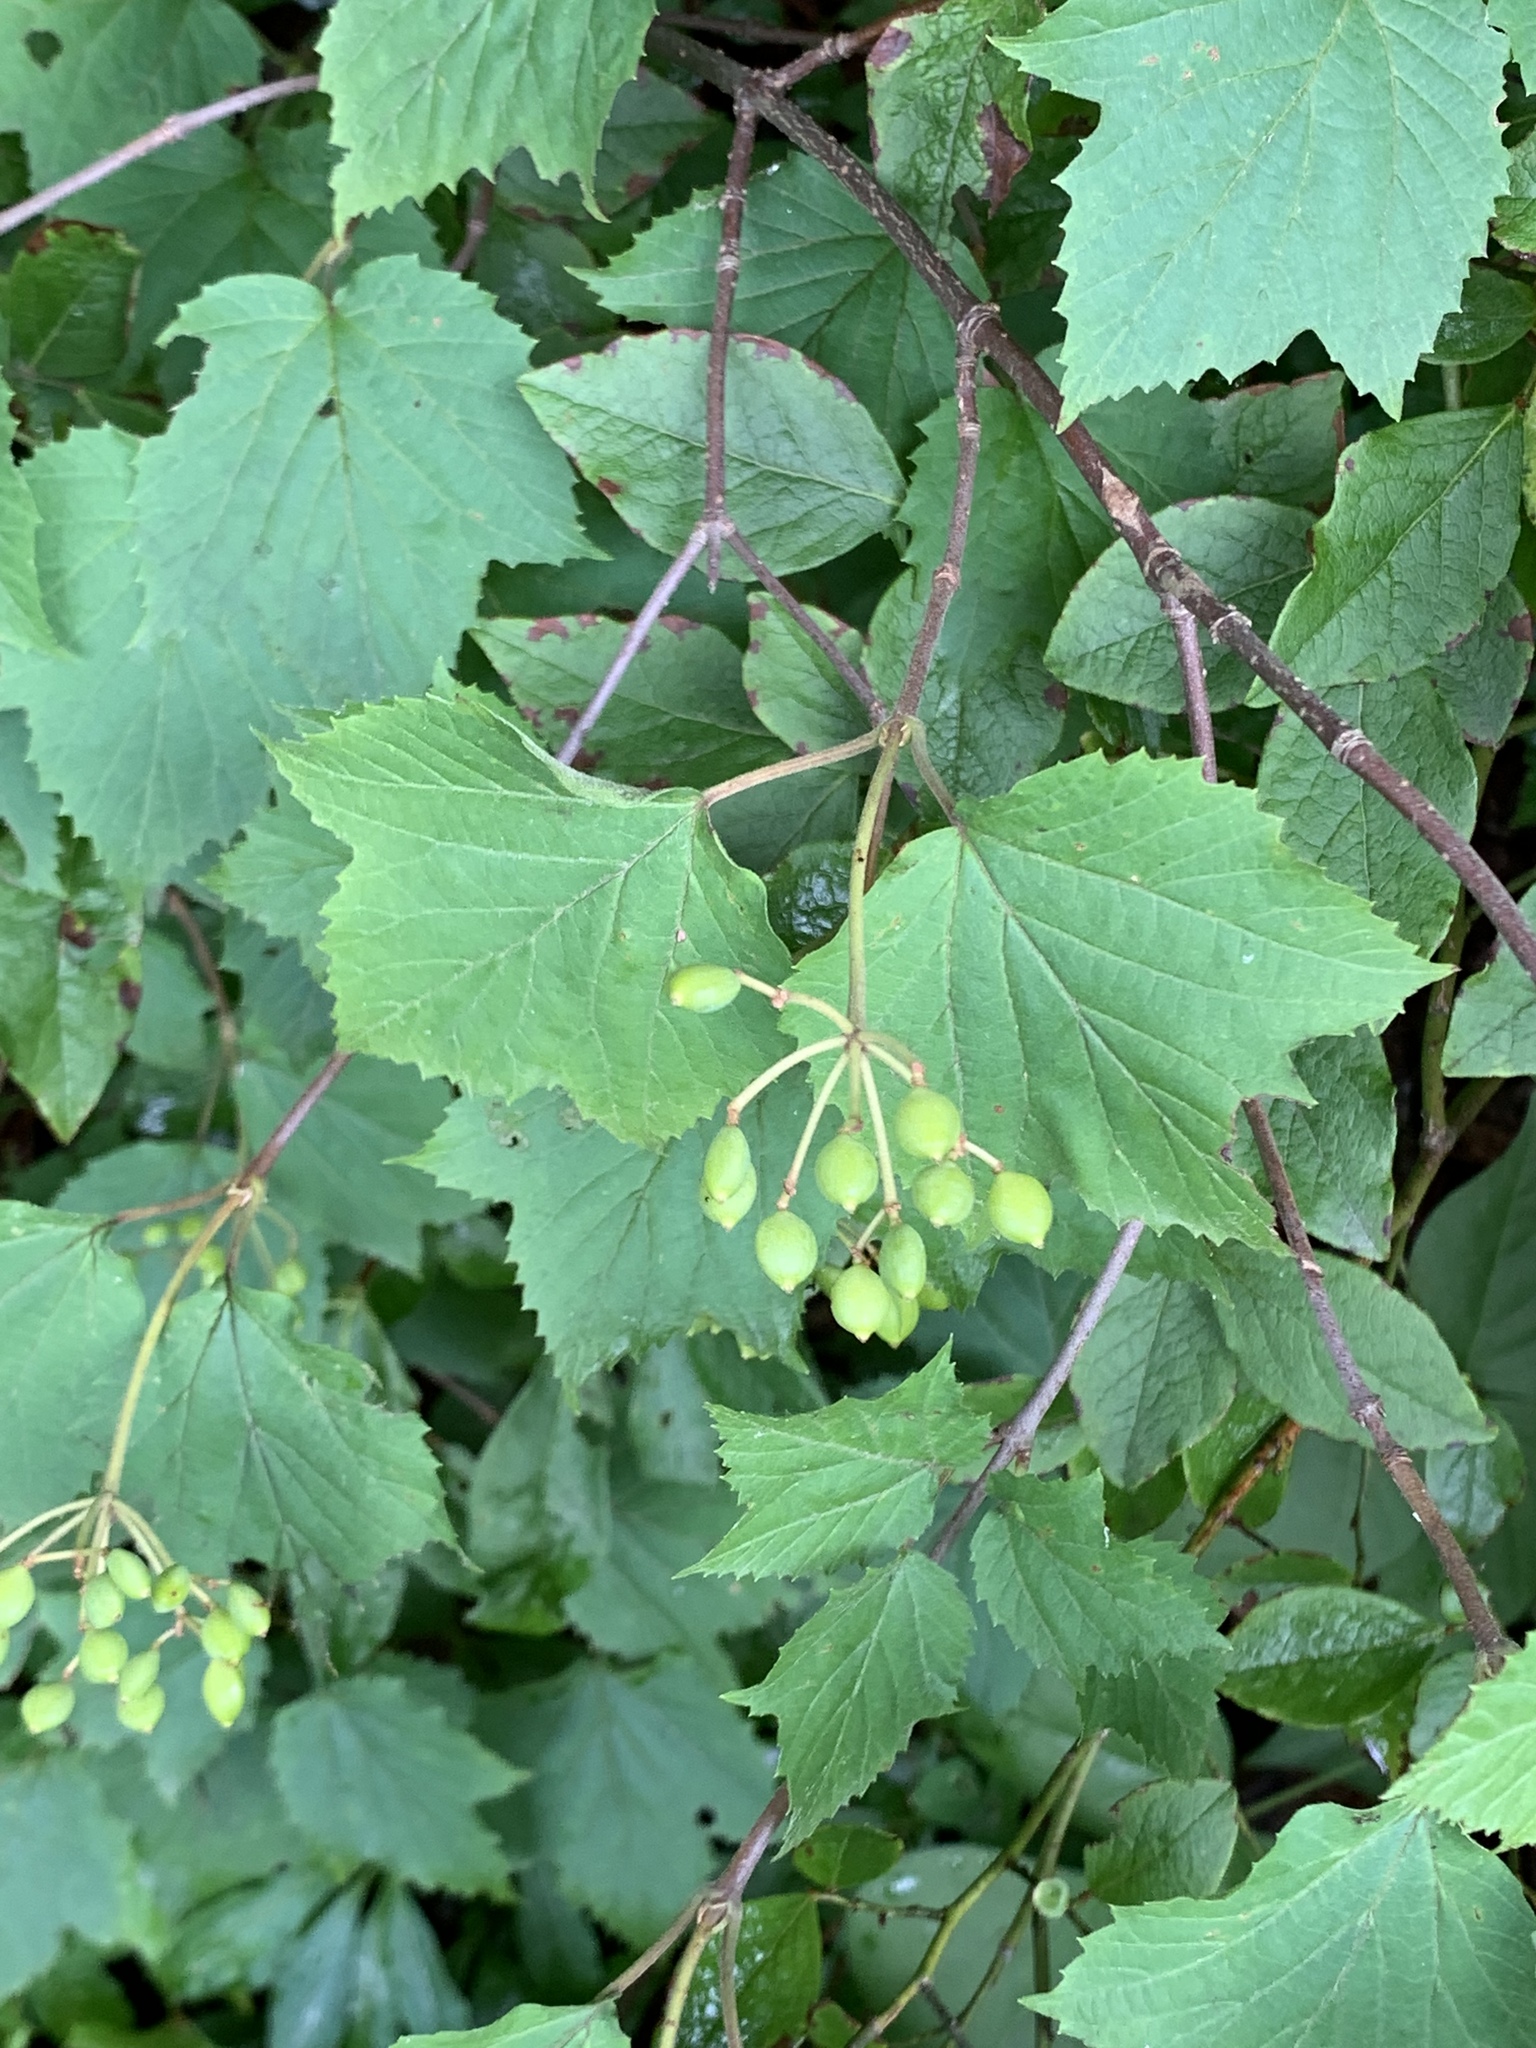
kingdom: Plantae
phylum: Tracheophyta
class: Magnoliopsida
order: Dipsacales
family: Viburnaceae
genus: Viburnum
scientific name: Viburnum acerifolium
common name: Dockmackie
